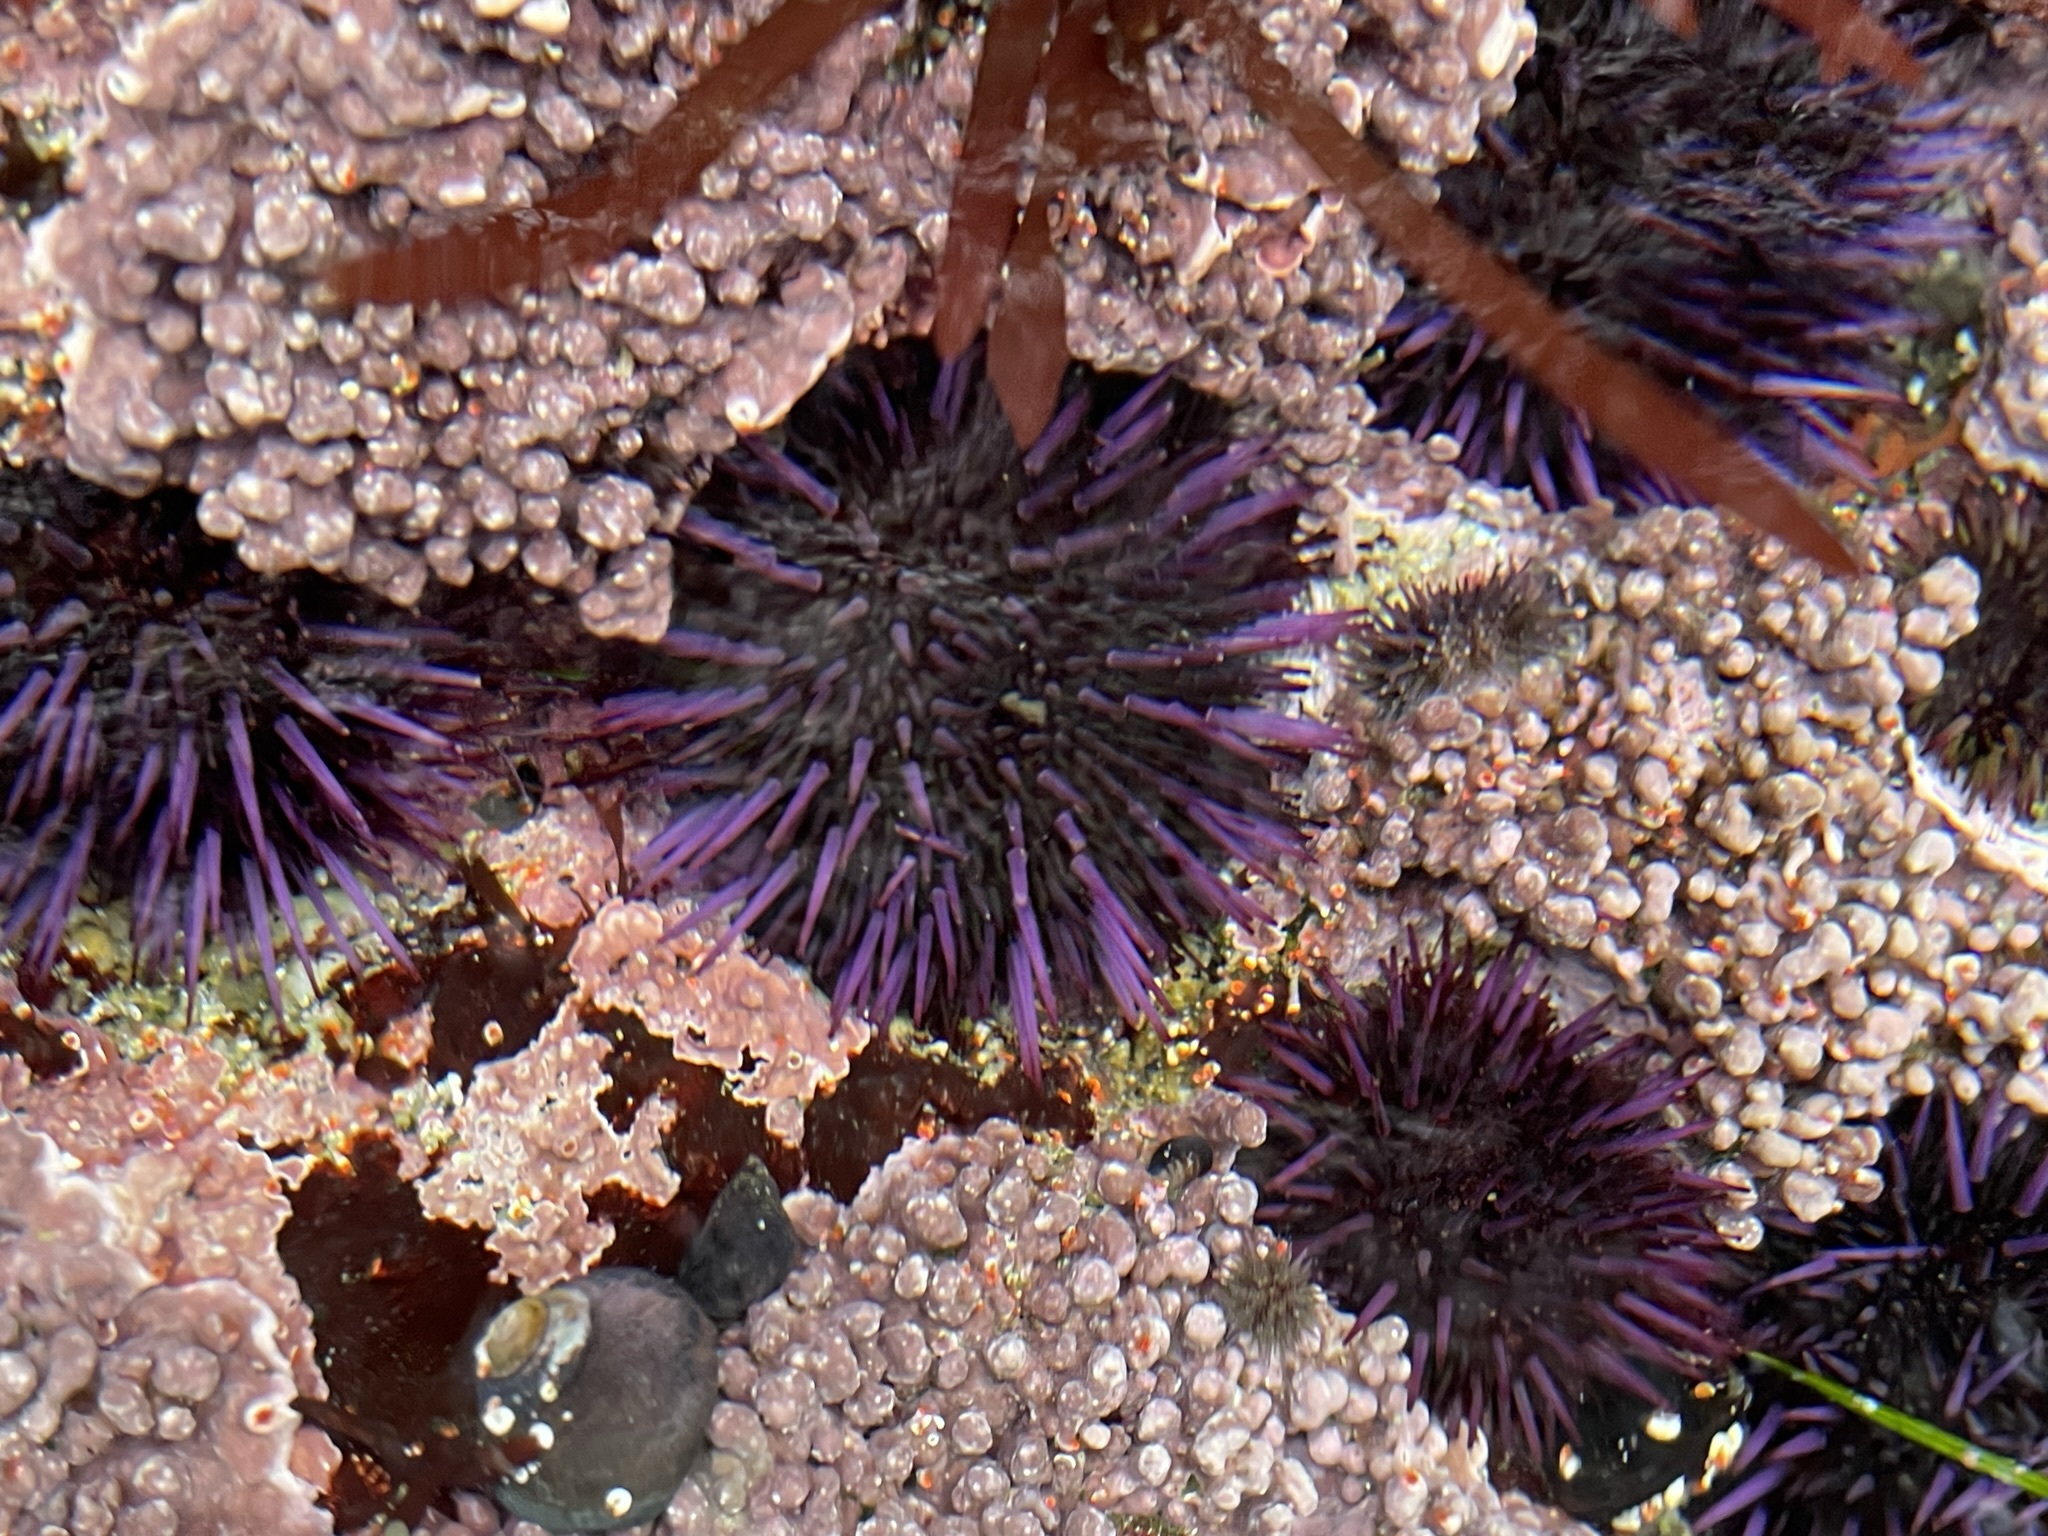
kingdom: Animalia
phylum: Echinodermata
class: Echinoidea
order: Camarodonta
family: Strongylocentrotidae
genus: Strongylocentrotus
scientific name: Strongylocentrotus purpuratus
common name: Purple sea urchin
